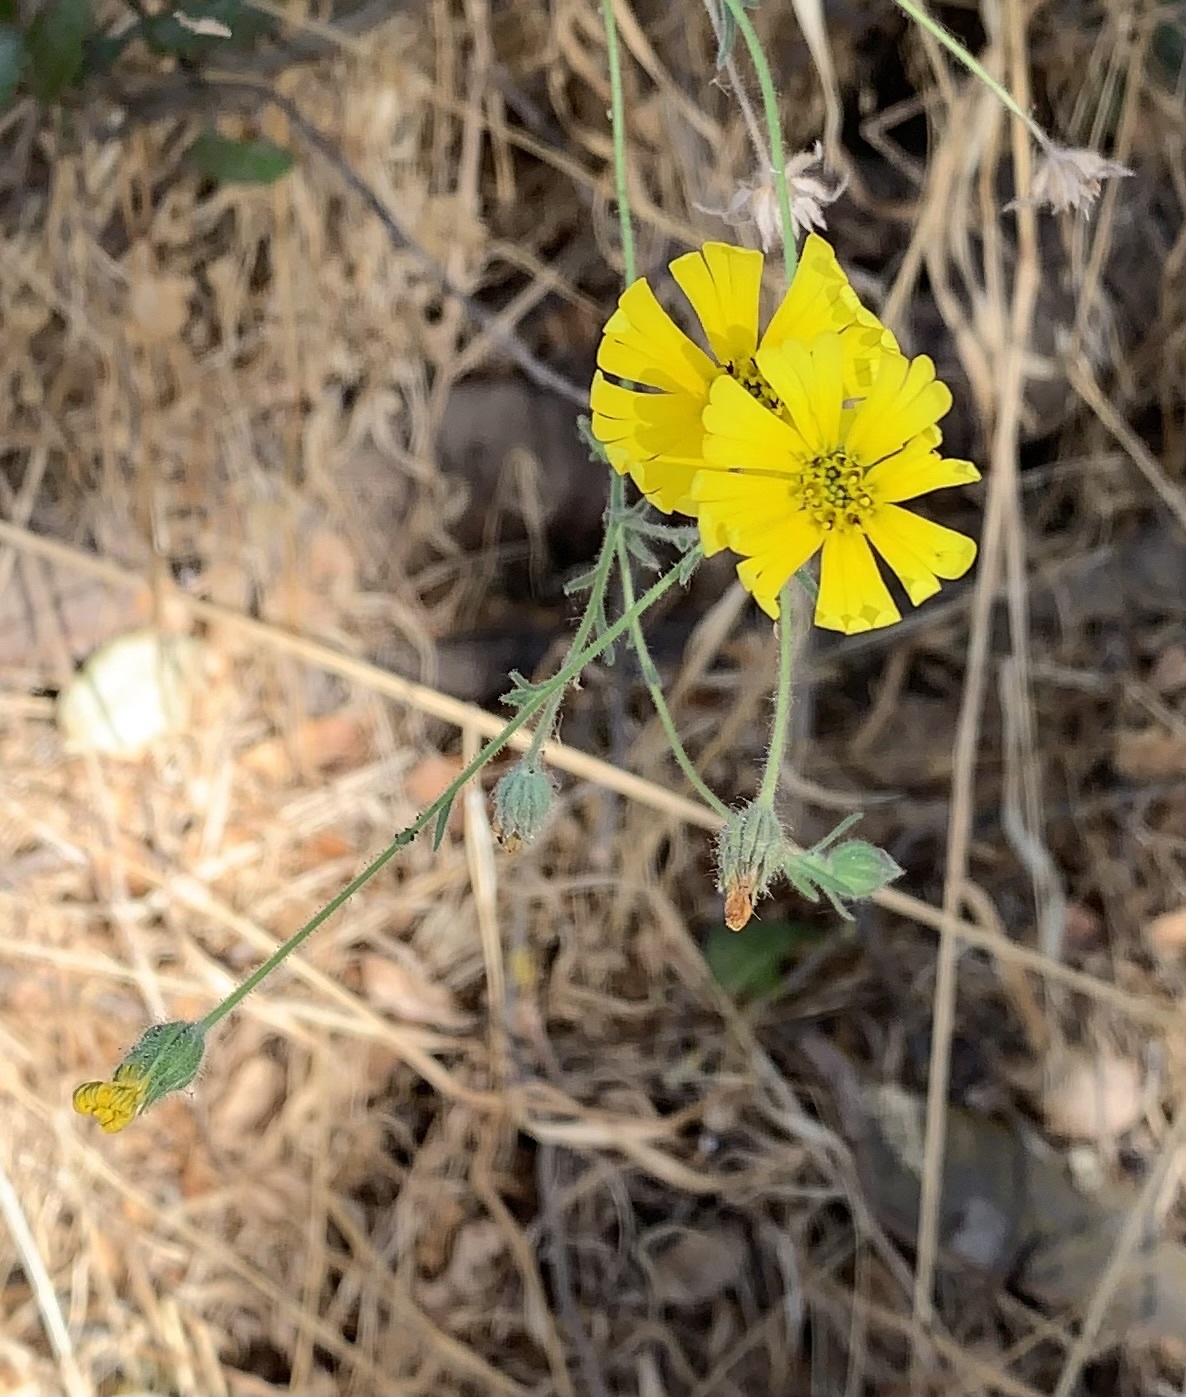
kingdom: Plantae
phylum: Tracheophyta
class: Magnoliopsida
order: Asterales
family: Asteraceae
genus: Madia
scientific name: Madia elegans
